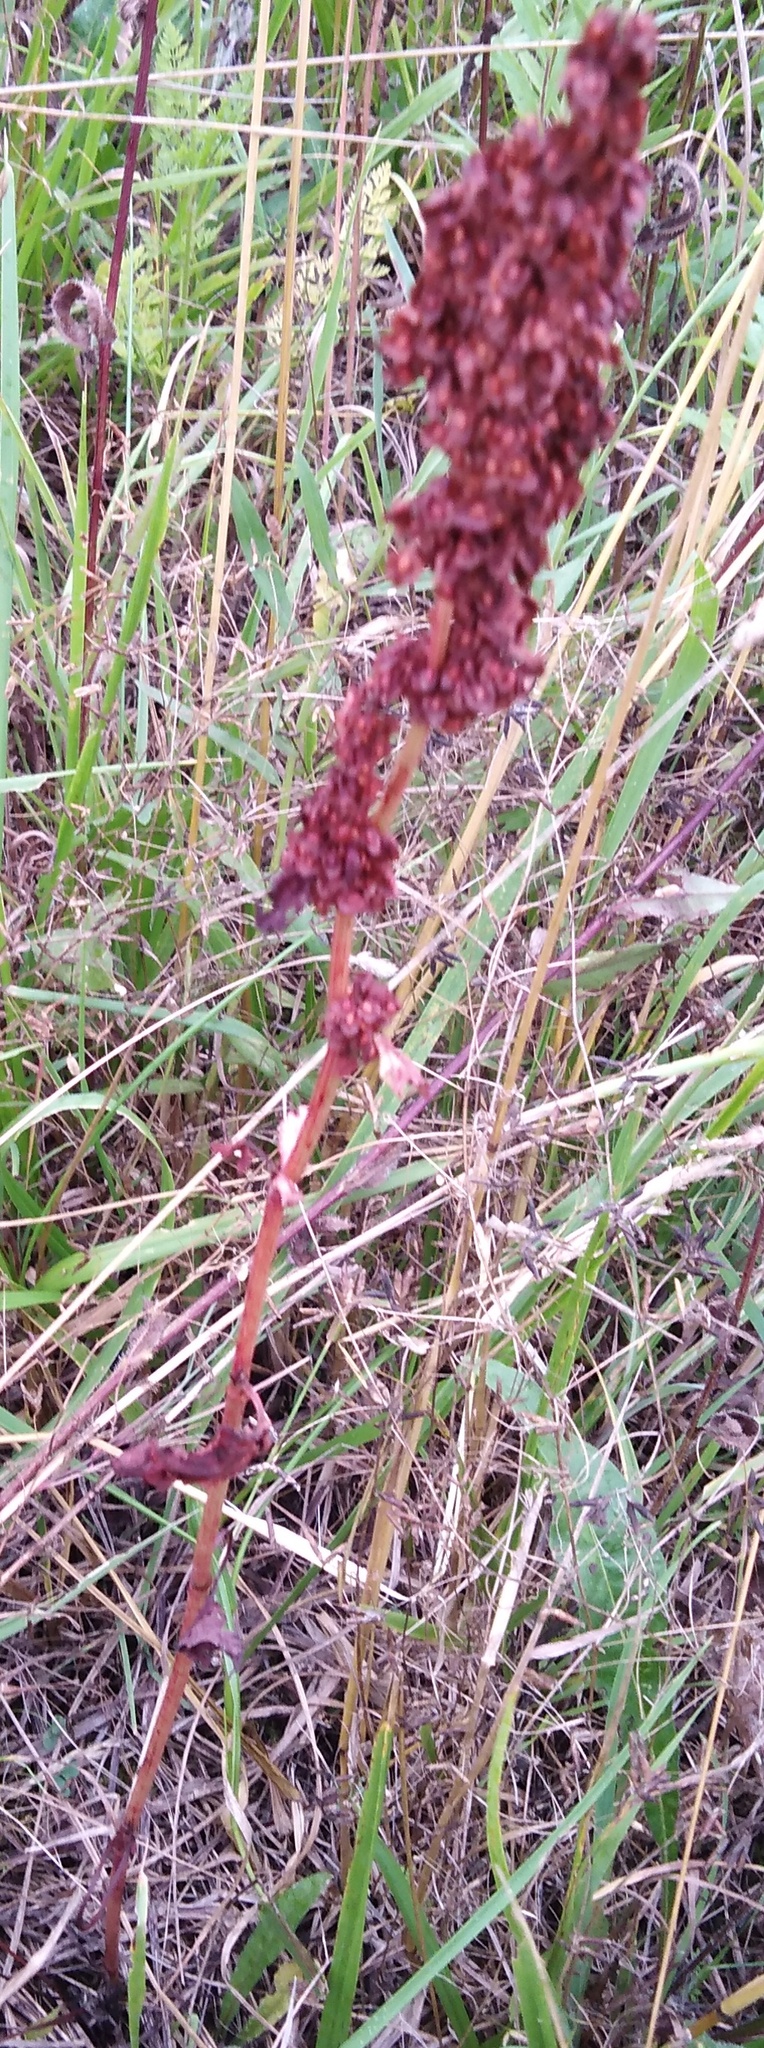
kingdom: Plantae
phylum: Tracheophyta
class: Magnoliopsida
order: Caryophyllales
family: Polygonaceae
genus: Rumex
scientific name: Rumex crispus
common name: Curled dock
